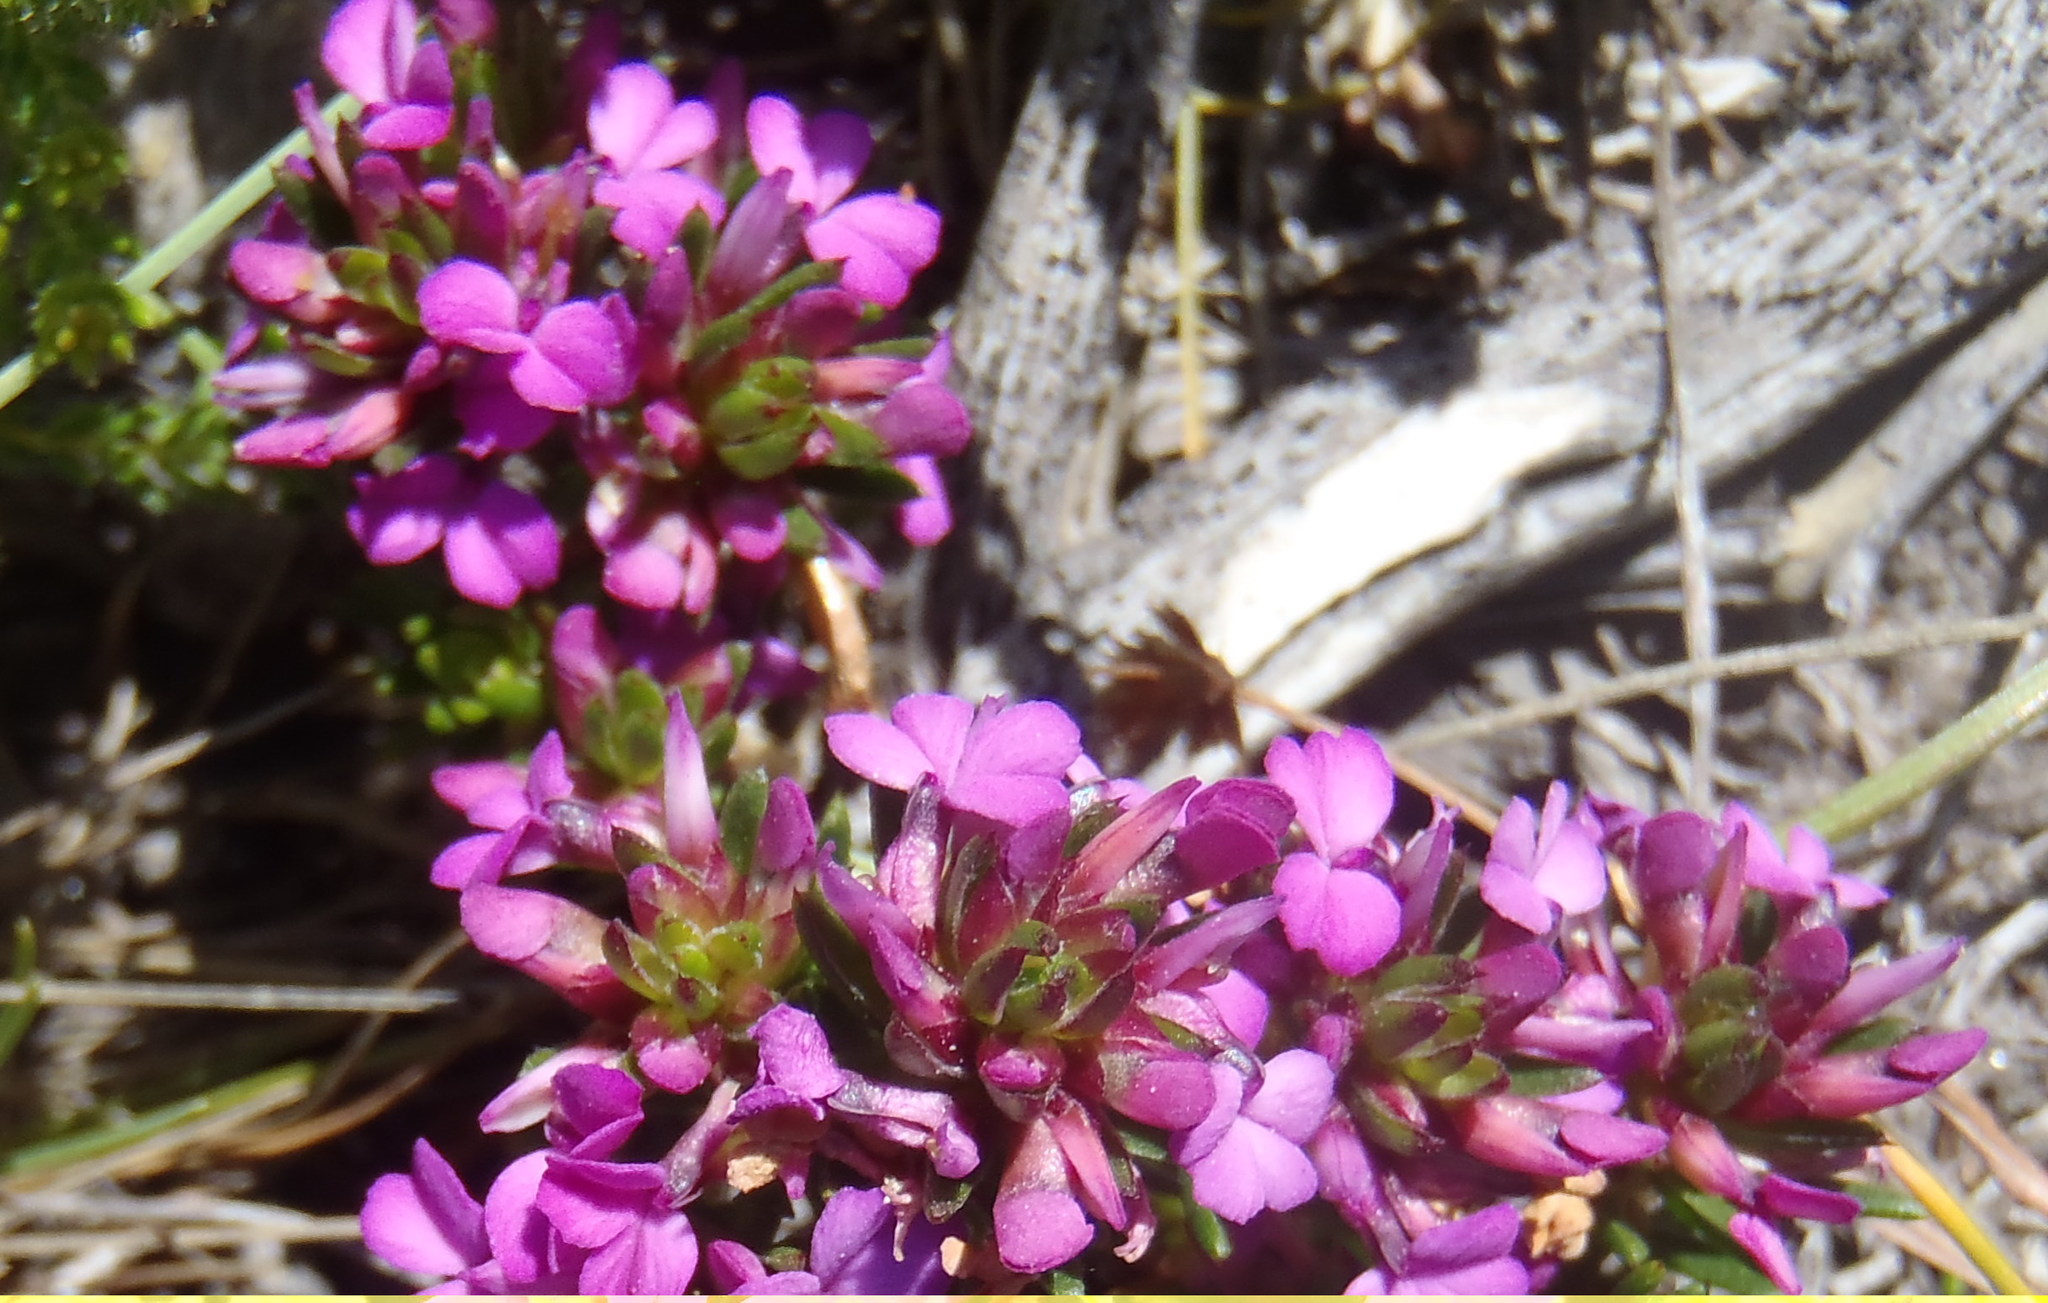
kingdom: Plantae
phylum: Tracheophyta
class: Magnoliopsida
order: Fabales
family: Polygalaceae
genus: Muraltia
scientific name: Muraltia knysnaensis
